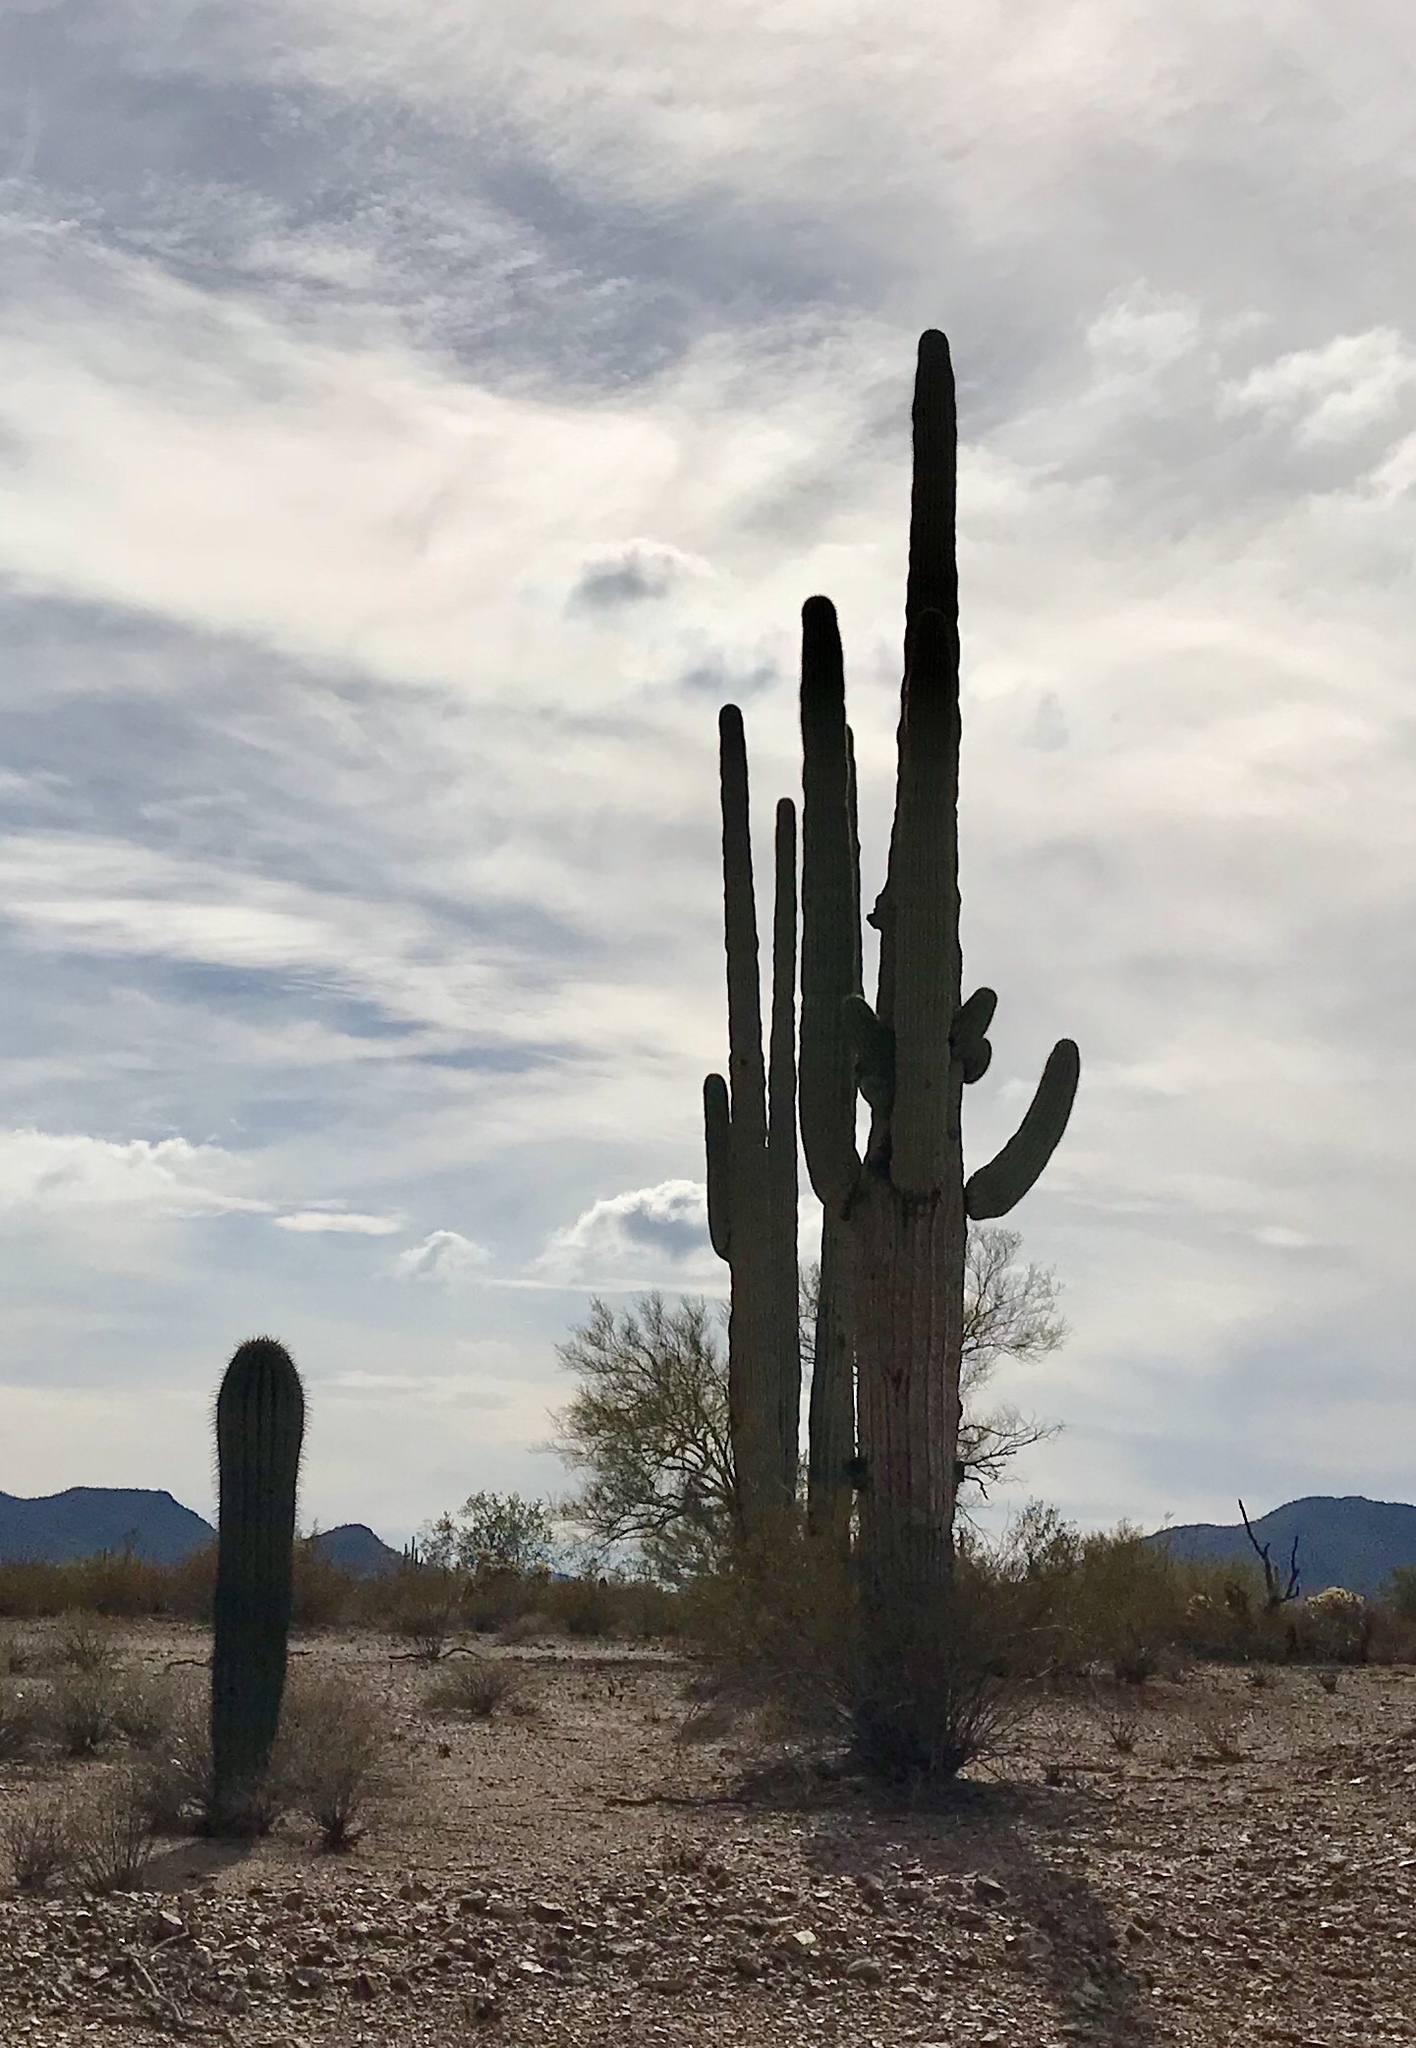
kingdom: Plantae
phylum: Tracheophyta
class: Magnoliopsida
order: Caryophyllales
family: Cactaceae
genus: Carnegiea
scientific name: Carnegiea gigantea
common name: Saguaro
